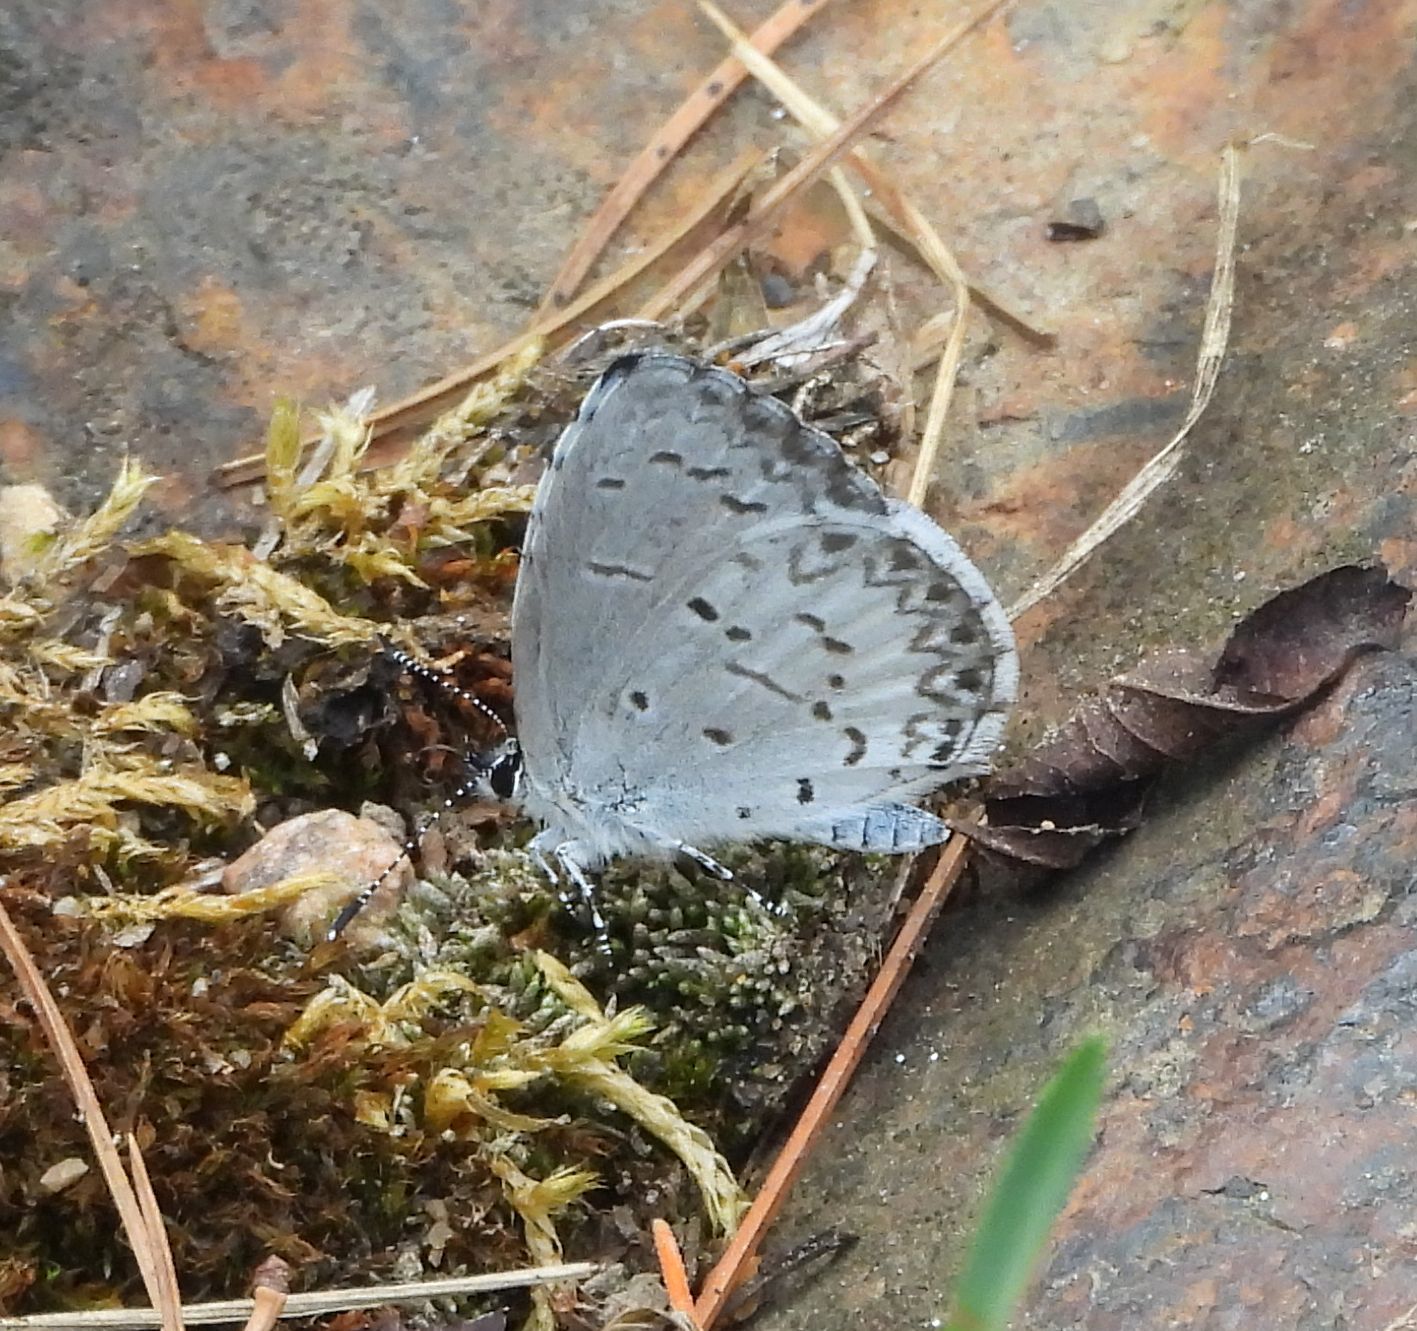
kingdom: Animalia
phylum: Arthropoda
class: Insecta
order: Lepidoptera
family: Lycaenidae
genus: Celastrina
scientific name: Celastrina lucia
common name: Lucia azure
